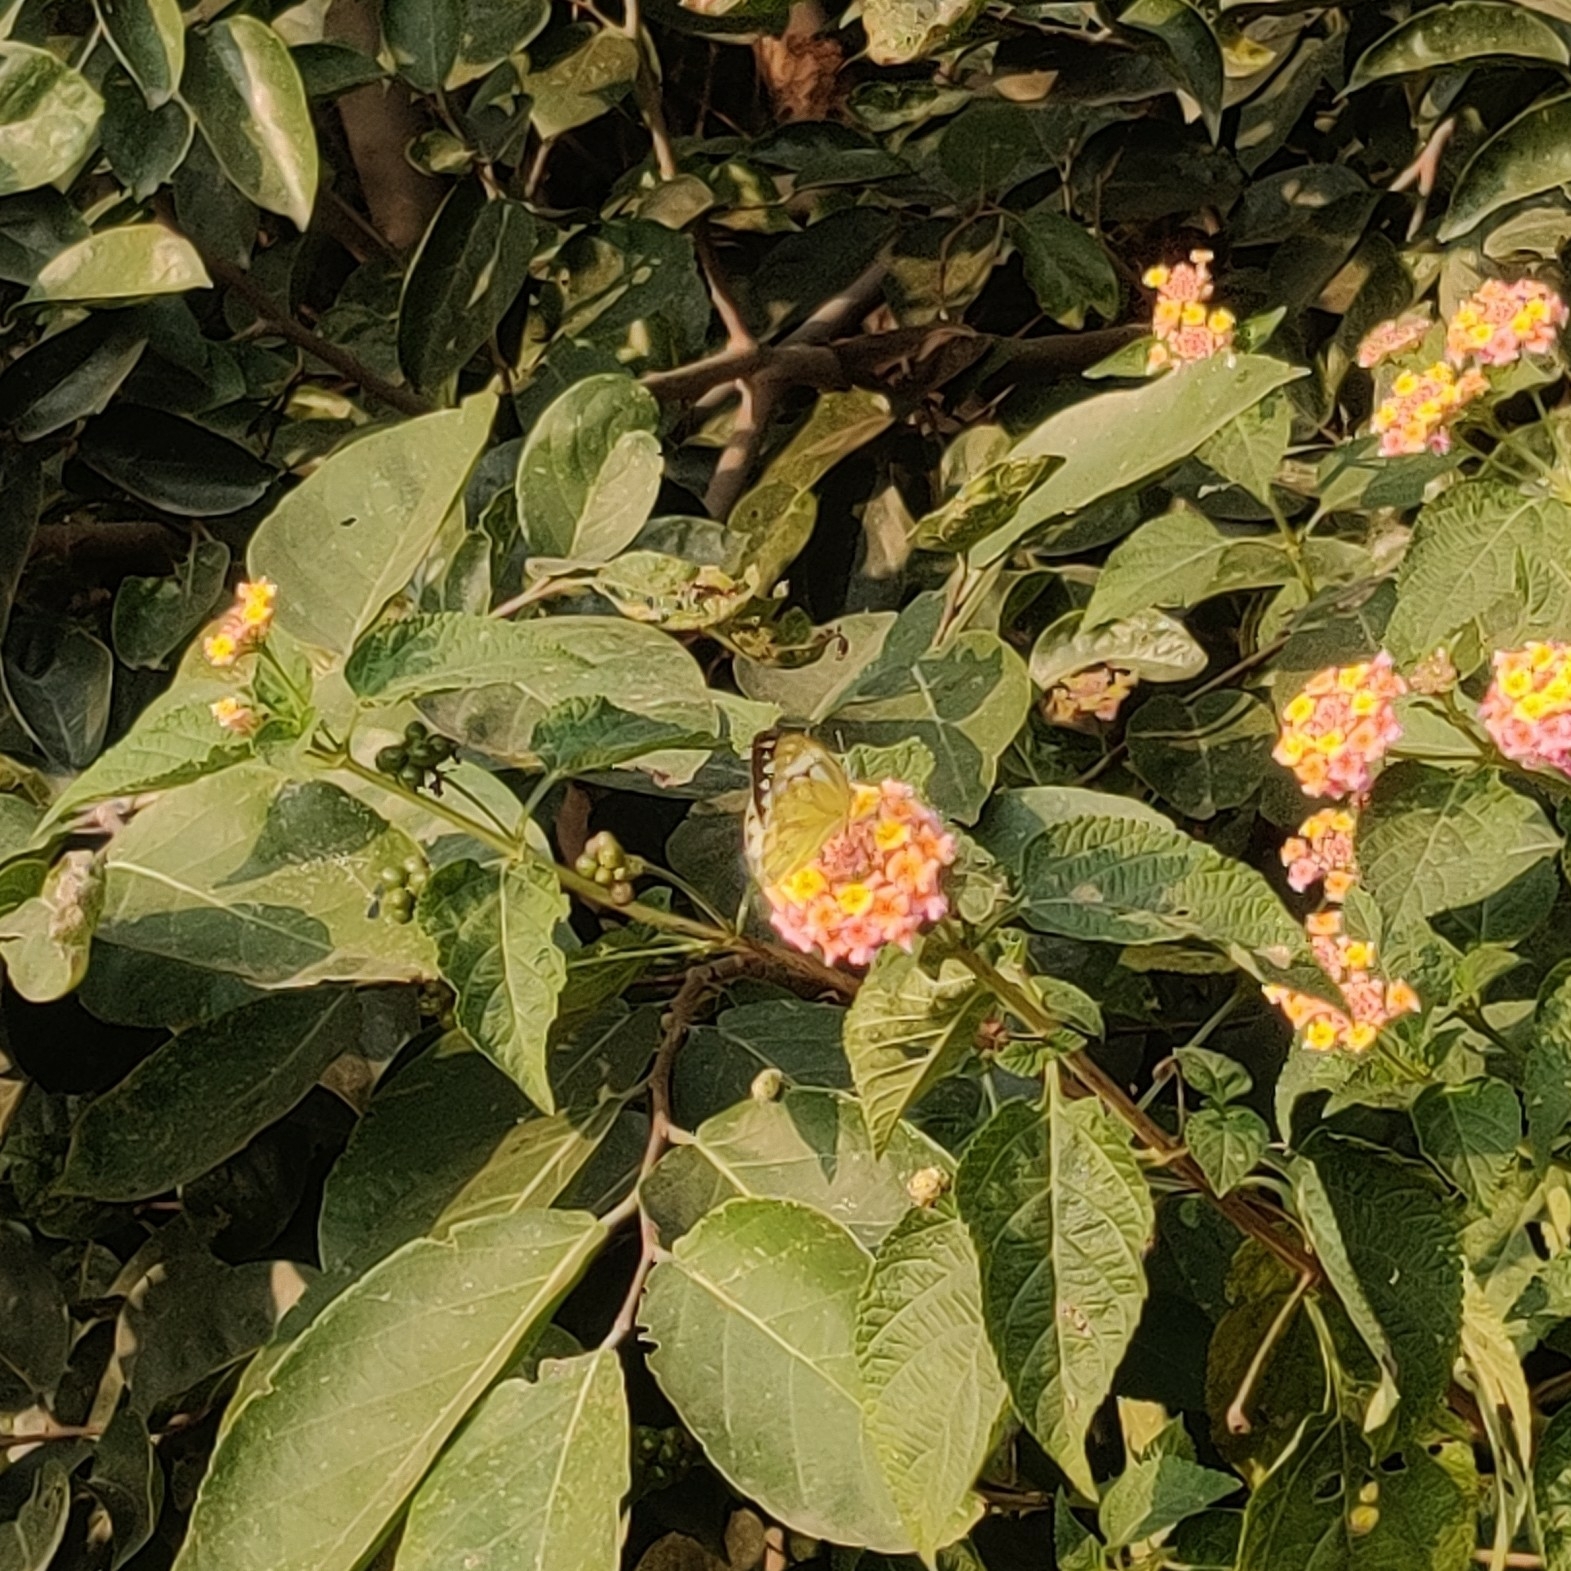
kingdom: Animalia
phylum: Arthropoda
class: Insecta
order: Lepidoptera
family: Pieridae
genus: Cepora
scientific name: Cepora nerissa
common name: Common gull
